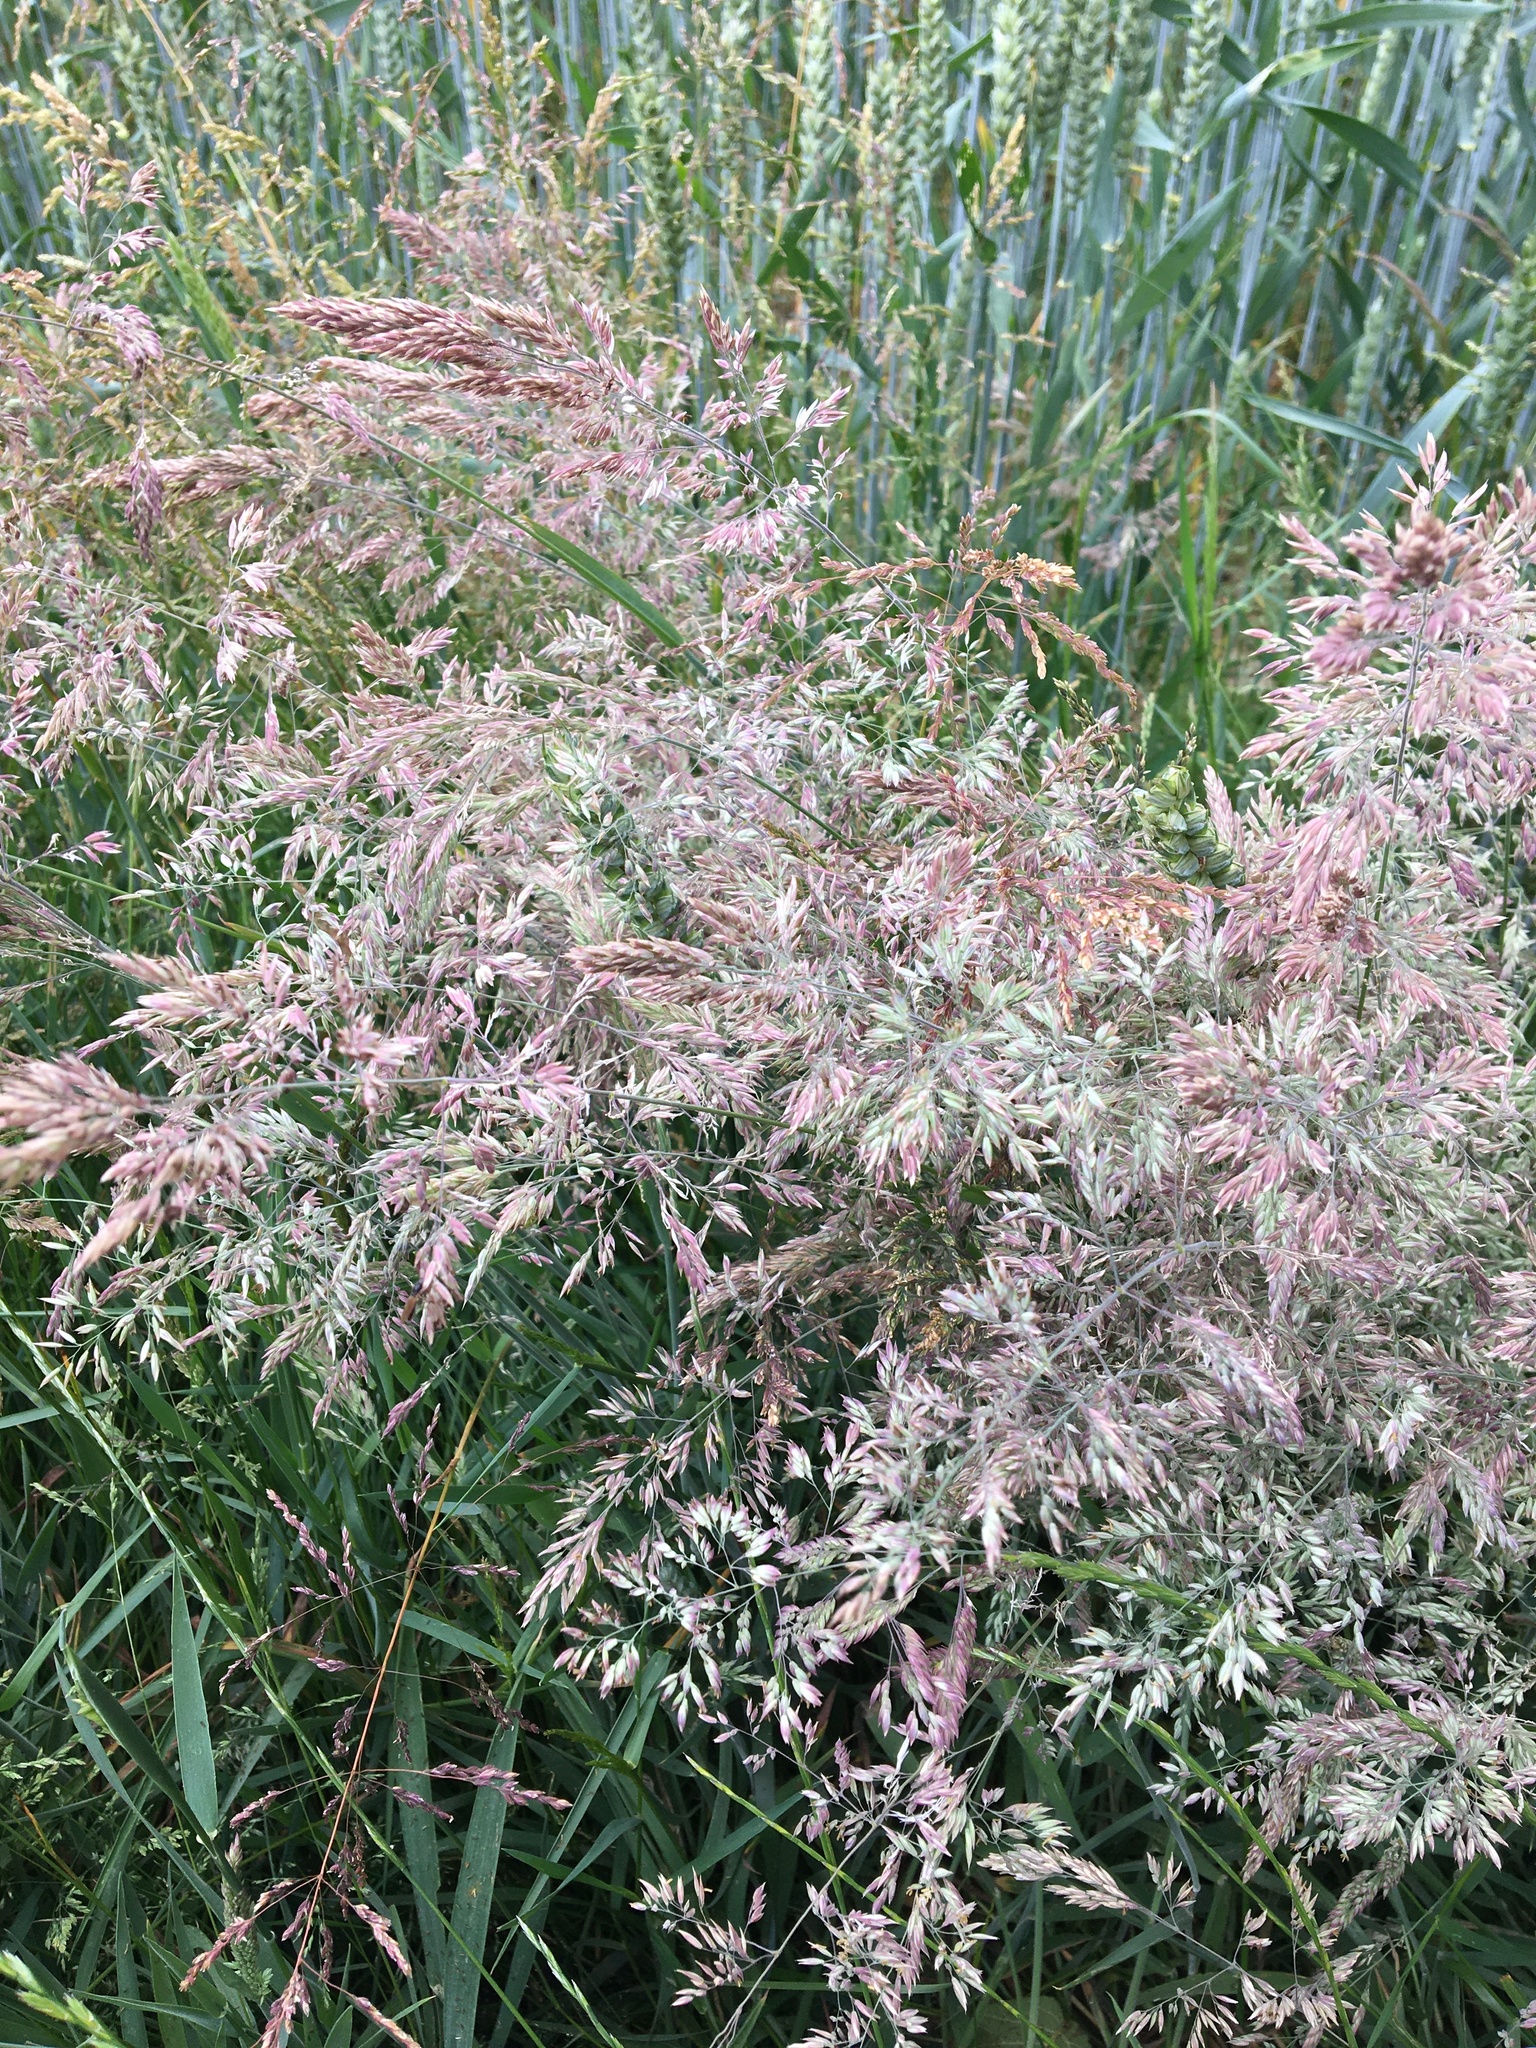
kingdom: Plantae
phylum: Tracheophyta
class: Liliopsida
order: Poales
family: Poaceae
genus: Holcus
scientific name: Holcus lanatus
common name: Yorkshire-fog
